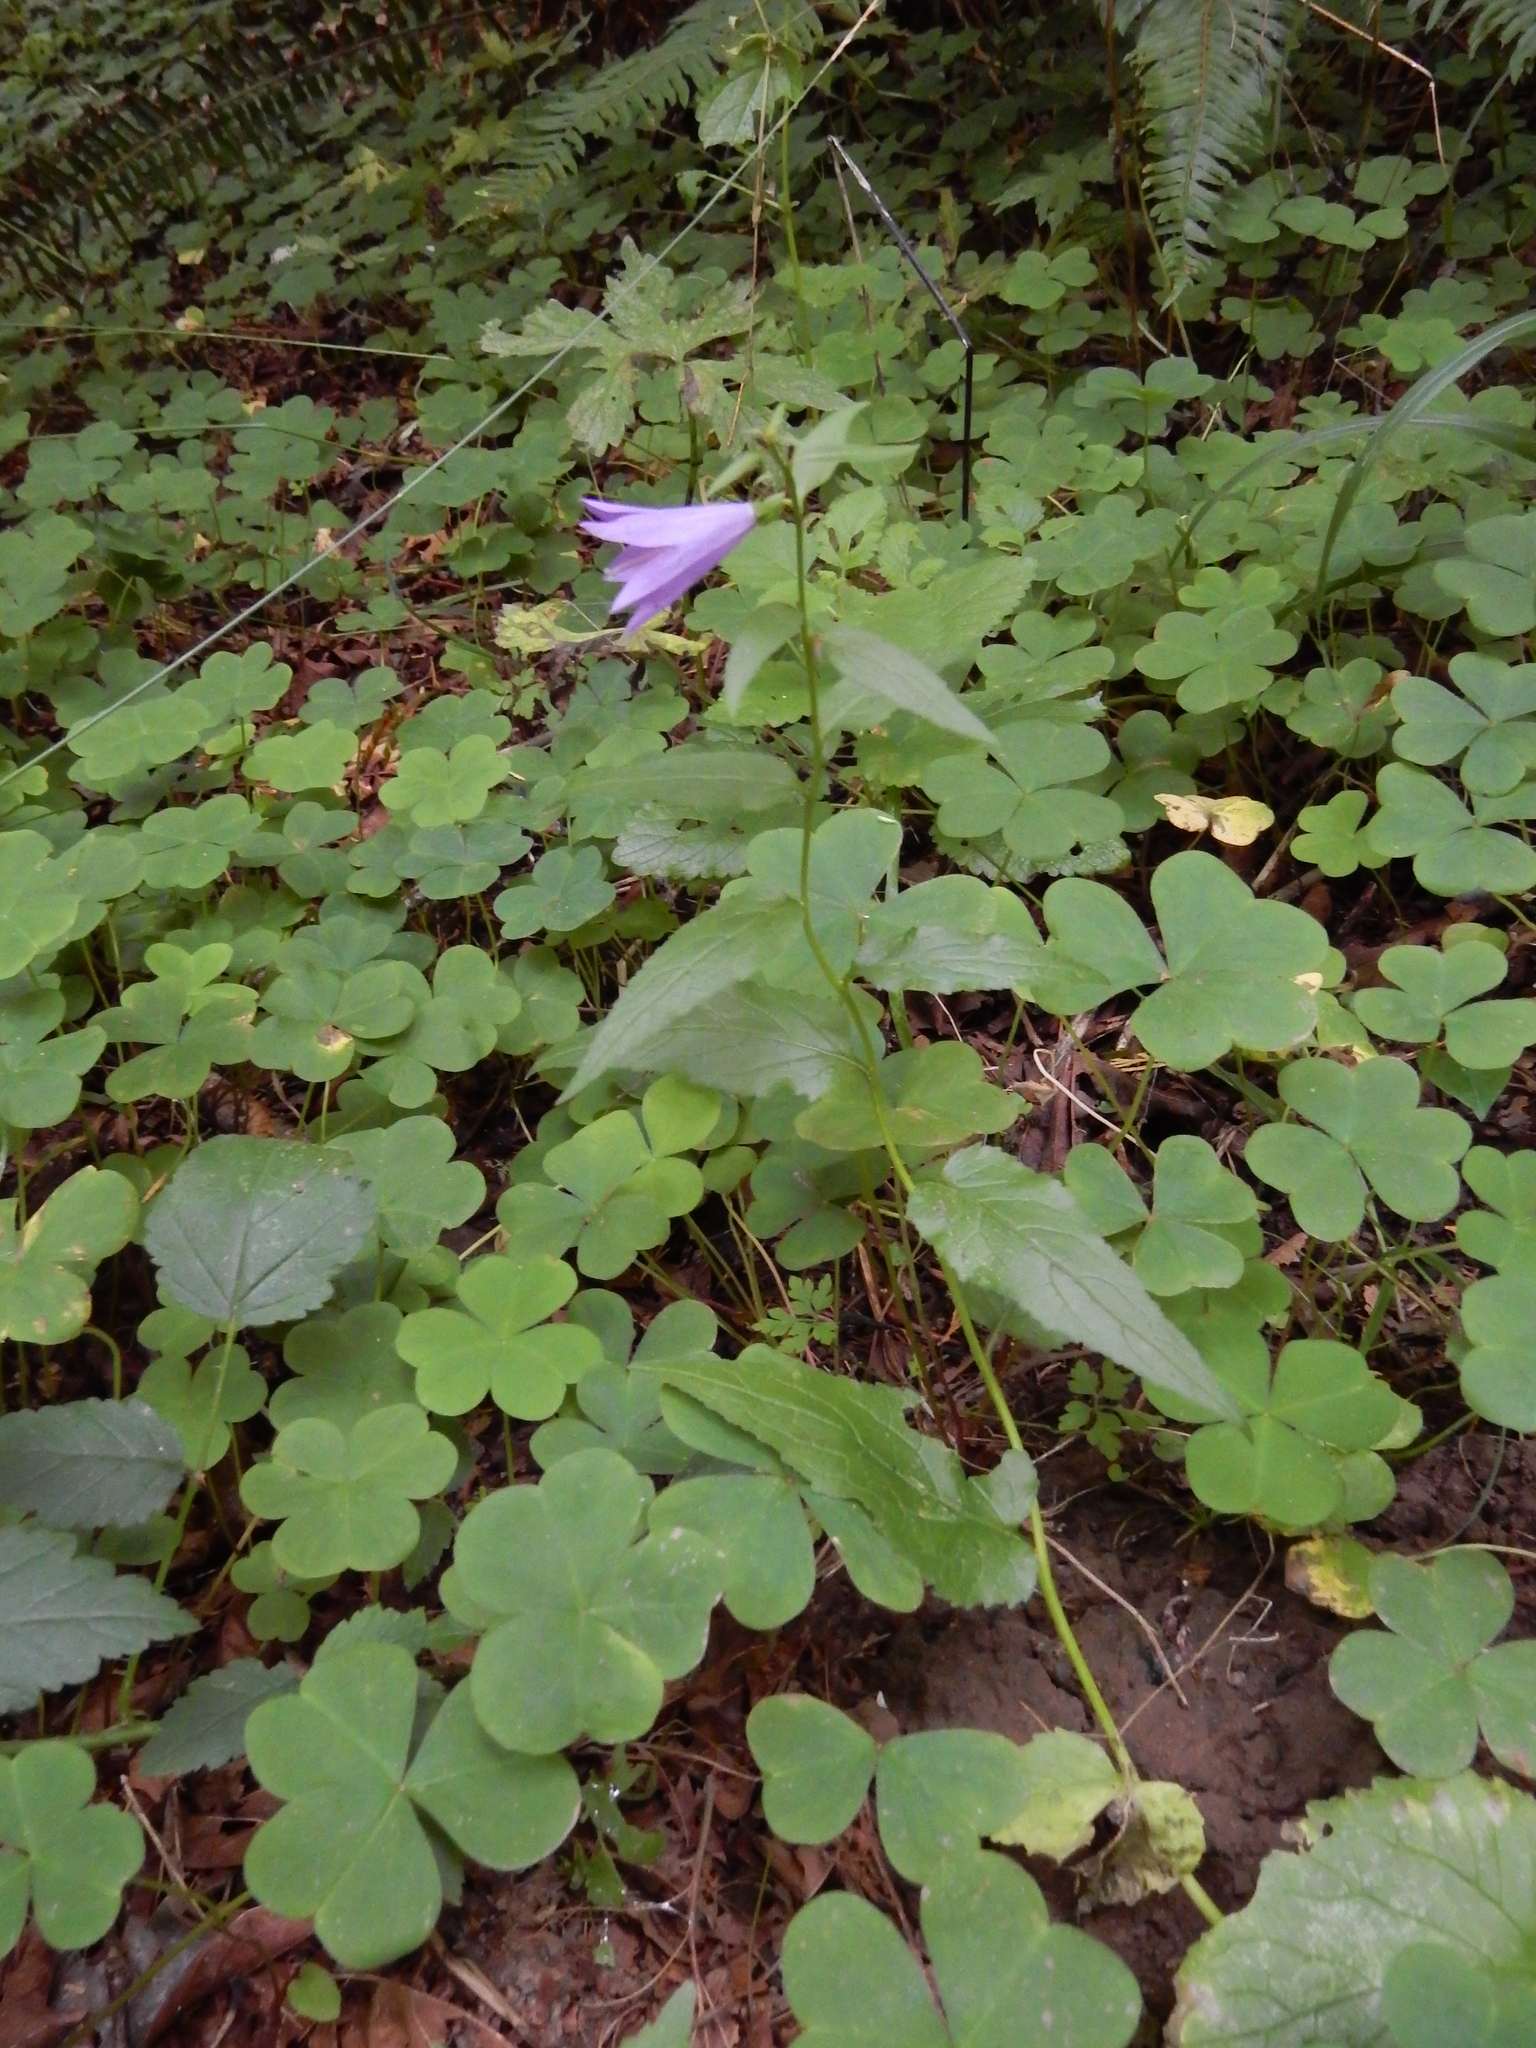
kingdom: Plantae
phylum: Tracheophyta
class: Magnoliopsida
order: Asterales
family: Campanulaceae
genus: Campanula
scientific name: Campanula rapunculoides
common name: Creeping bellflower
